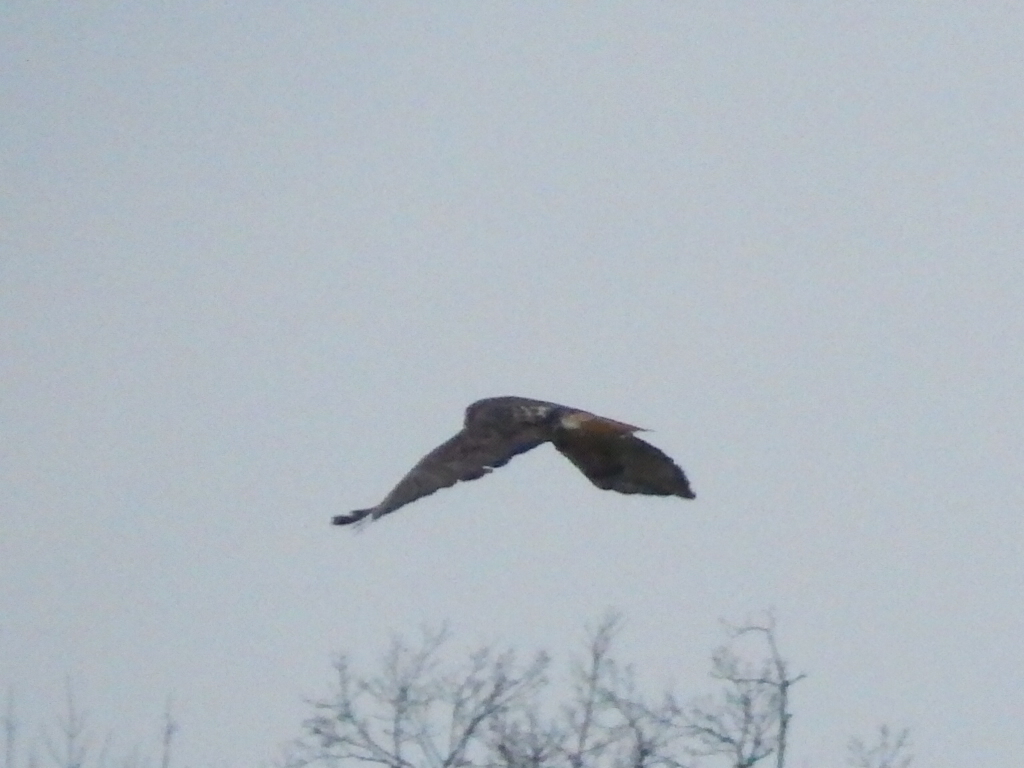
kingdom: Animalia
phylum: Chordata
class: Aves
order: Accipitriformes
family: Accipitridae
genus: Buteo
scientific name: Buteo jamaicensis
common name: Red-tailed hawk
